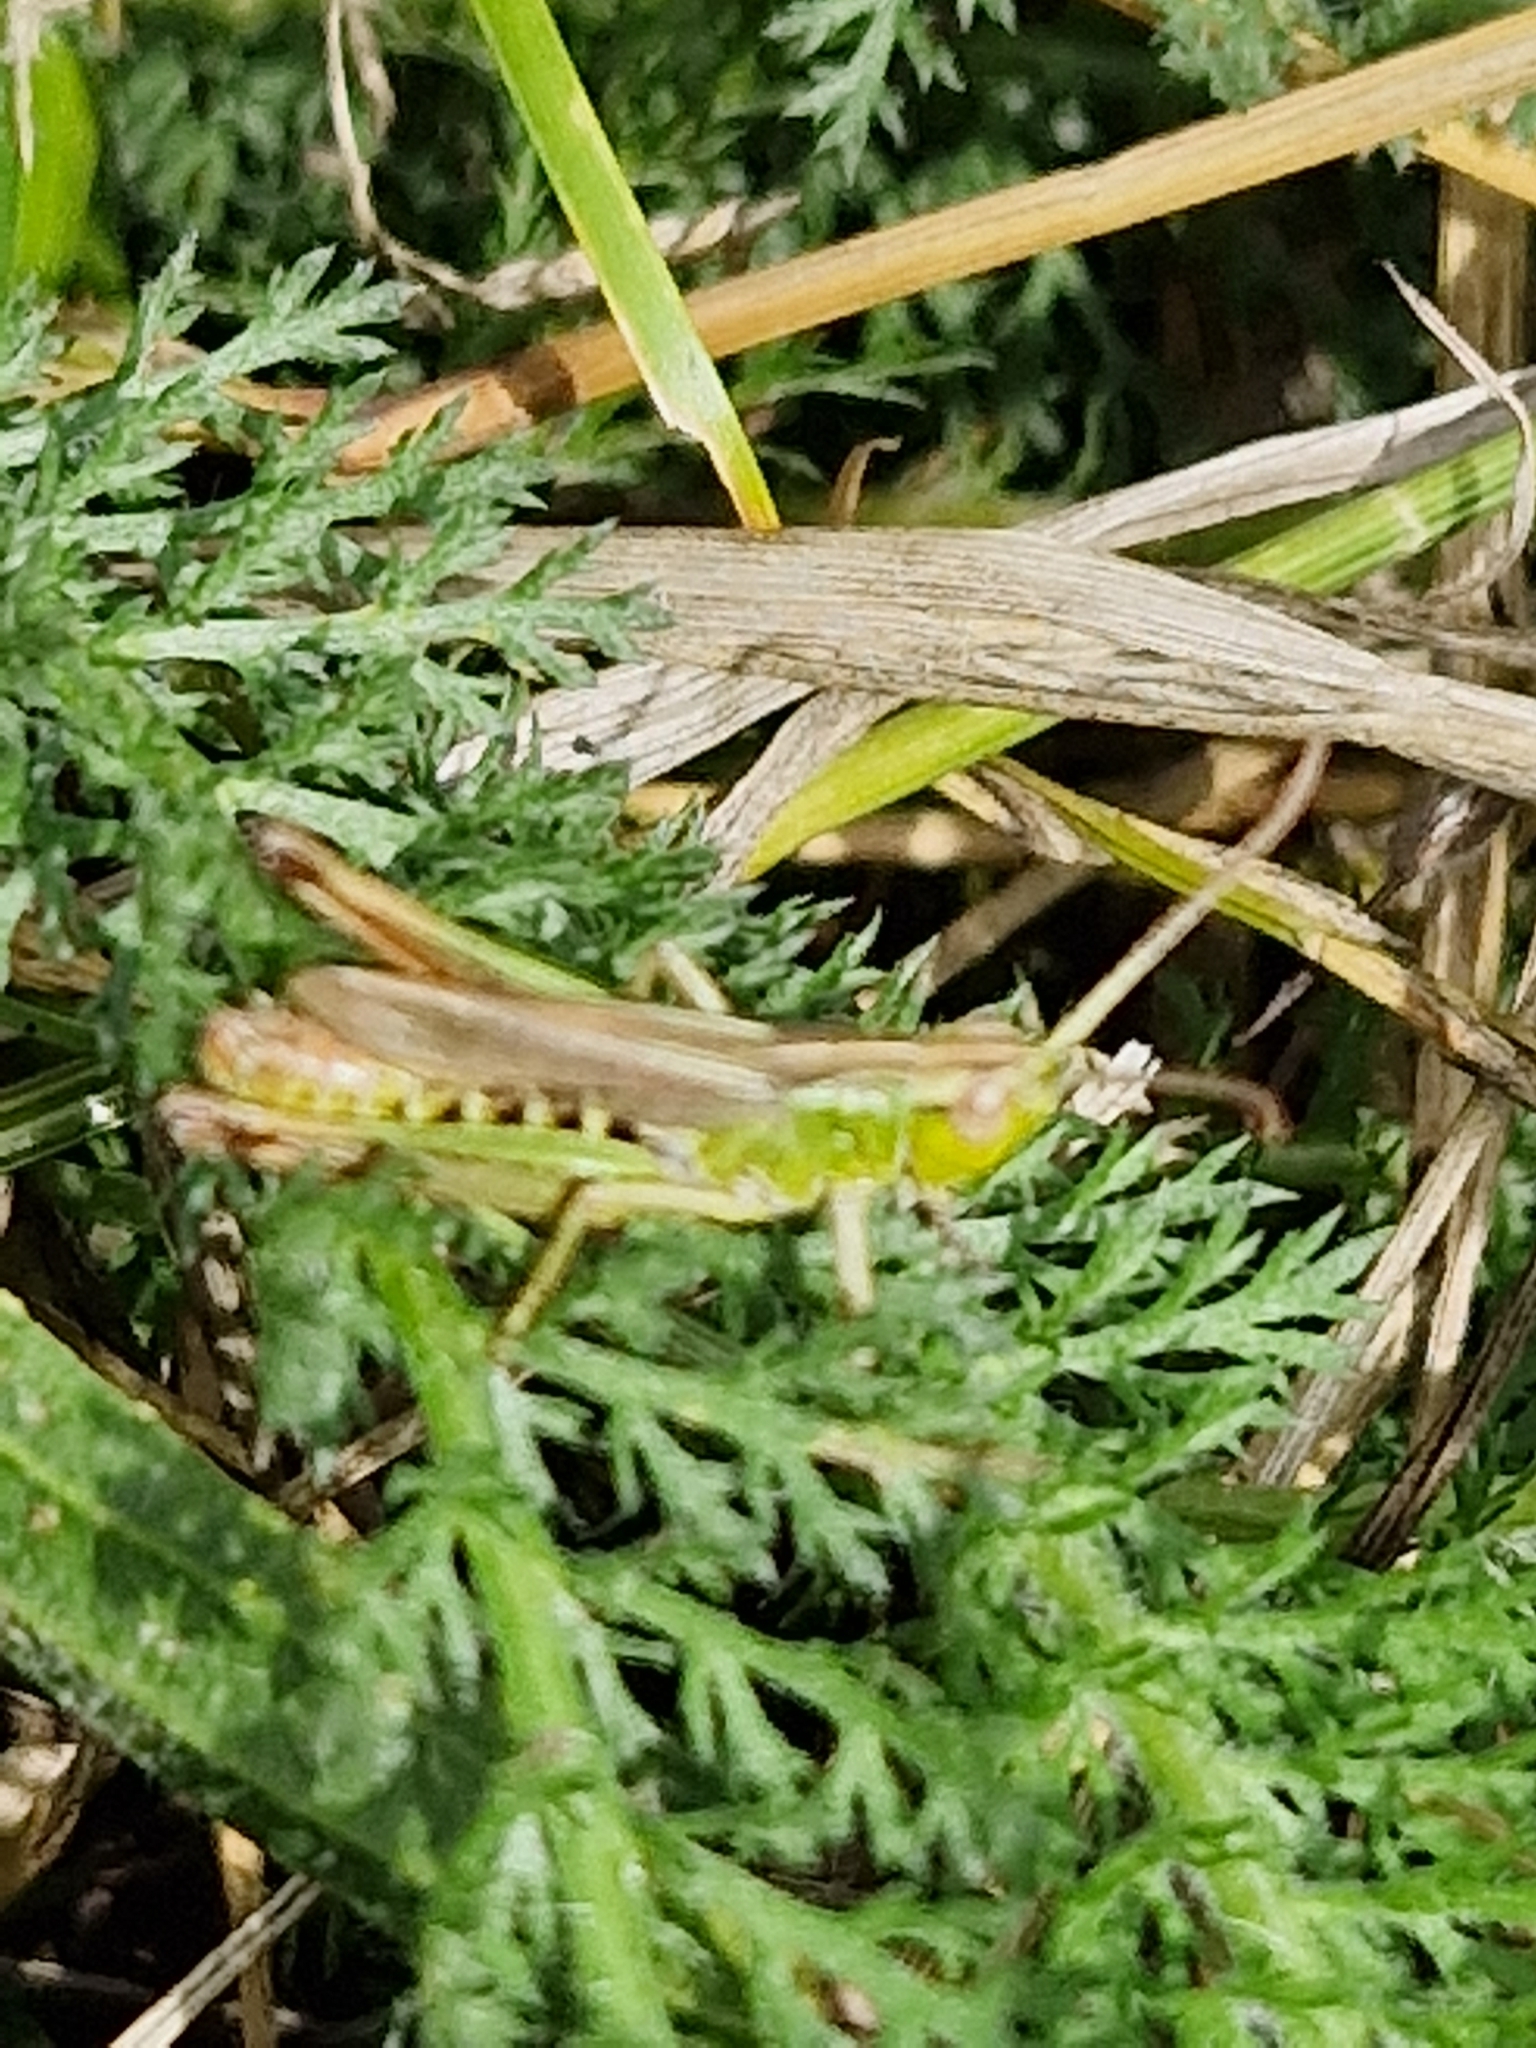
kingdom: Animalia
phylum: Arthropoda
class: Insecta
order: Orthoptera
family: Acrididae
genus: Pseudochorthippus
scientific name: Pseudochorthippus parallelus
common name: Meadow grasshopper
